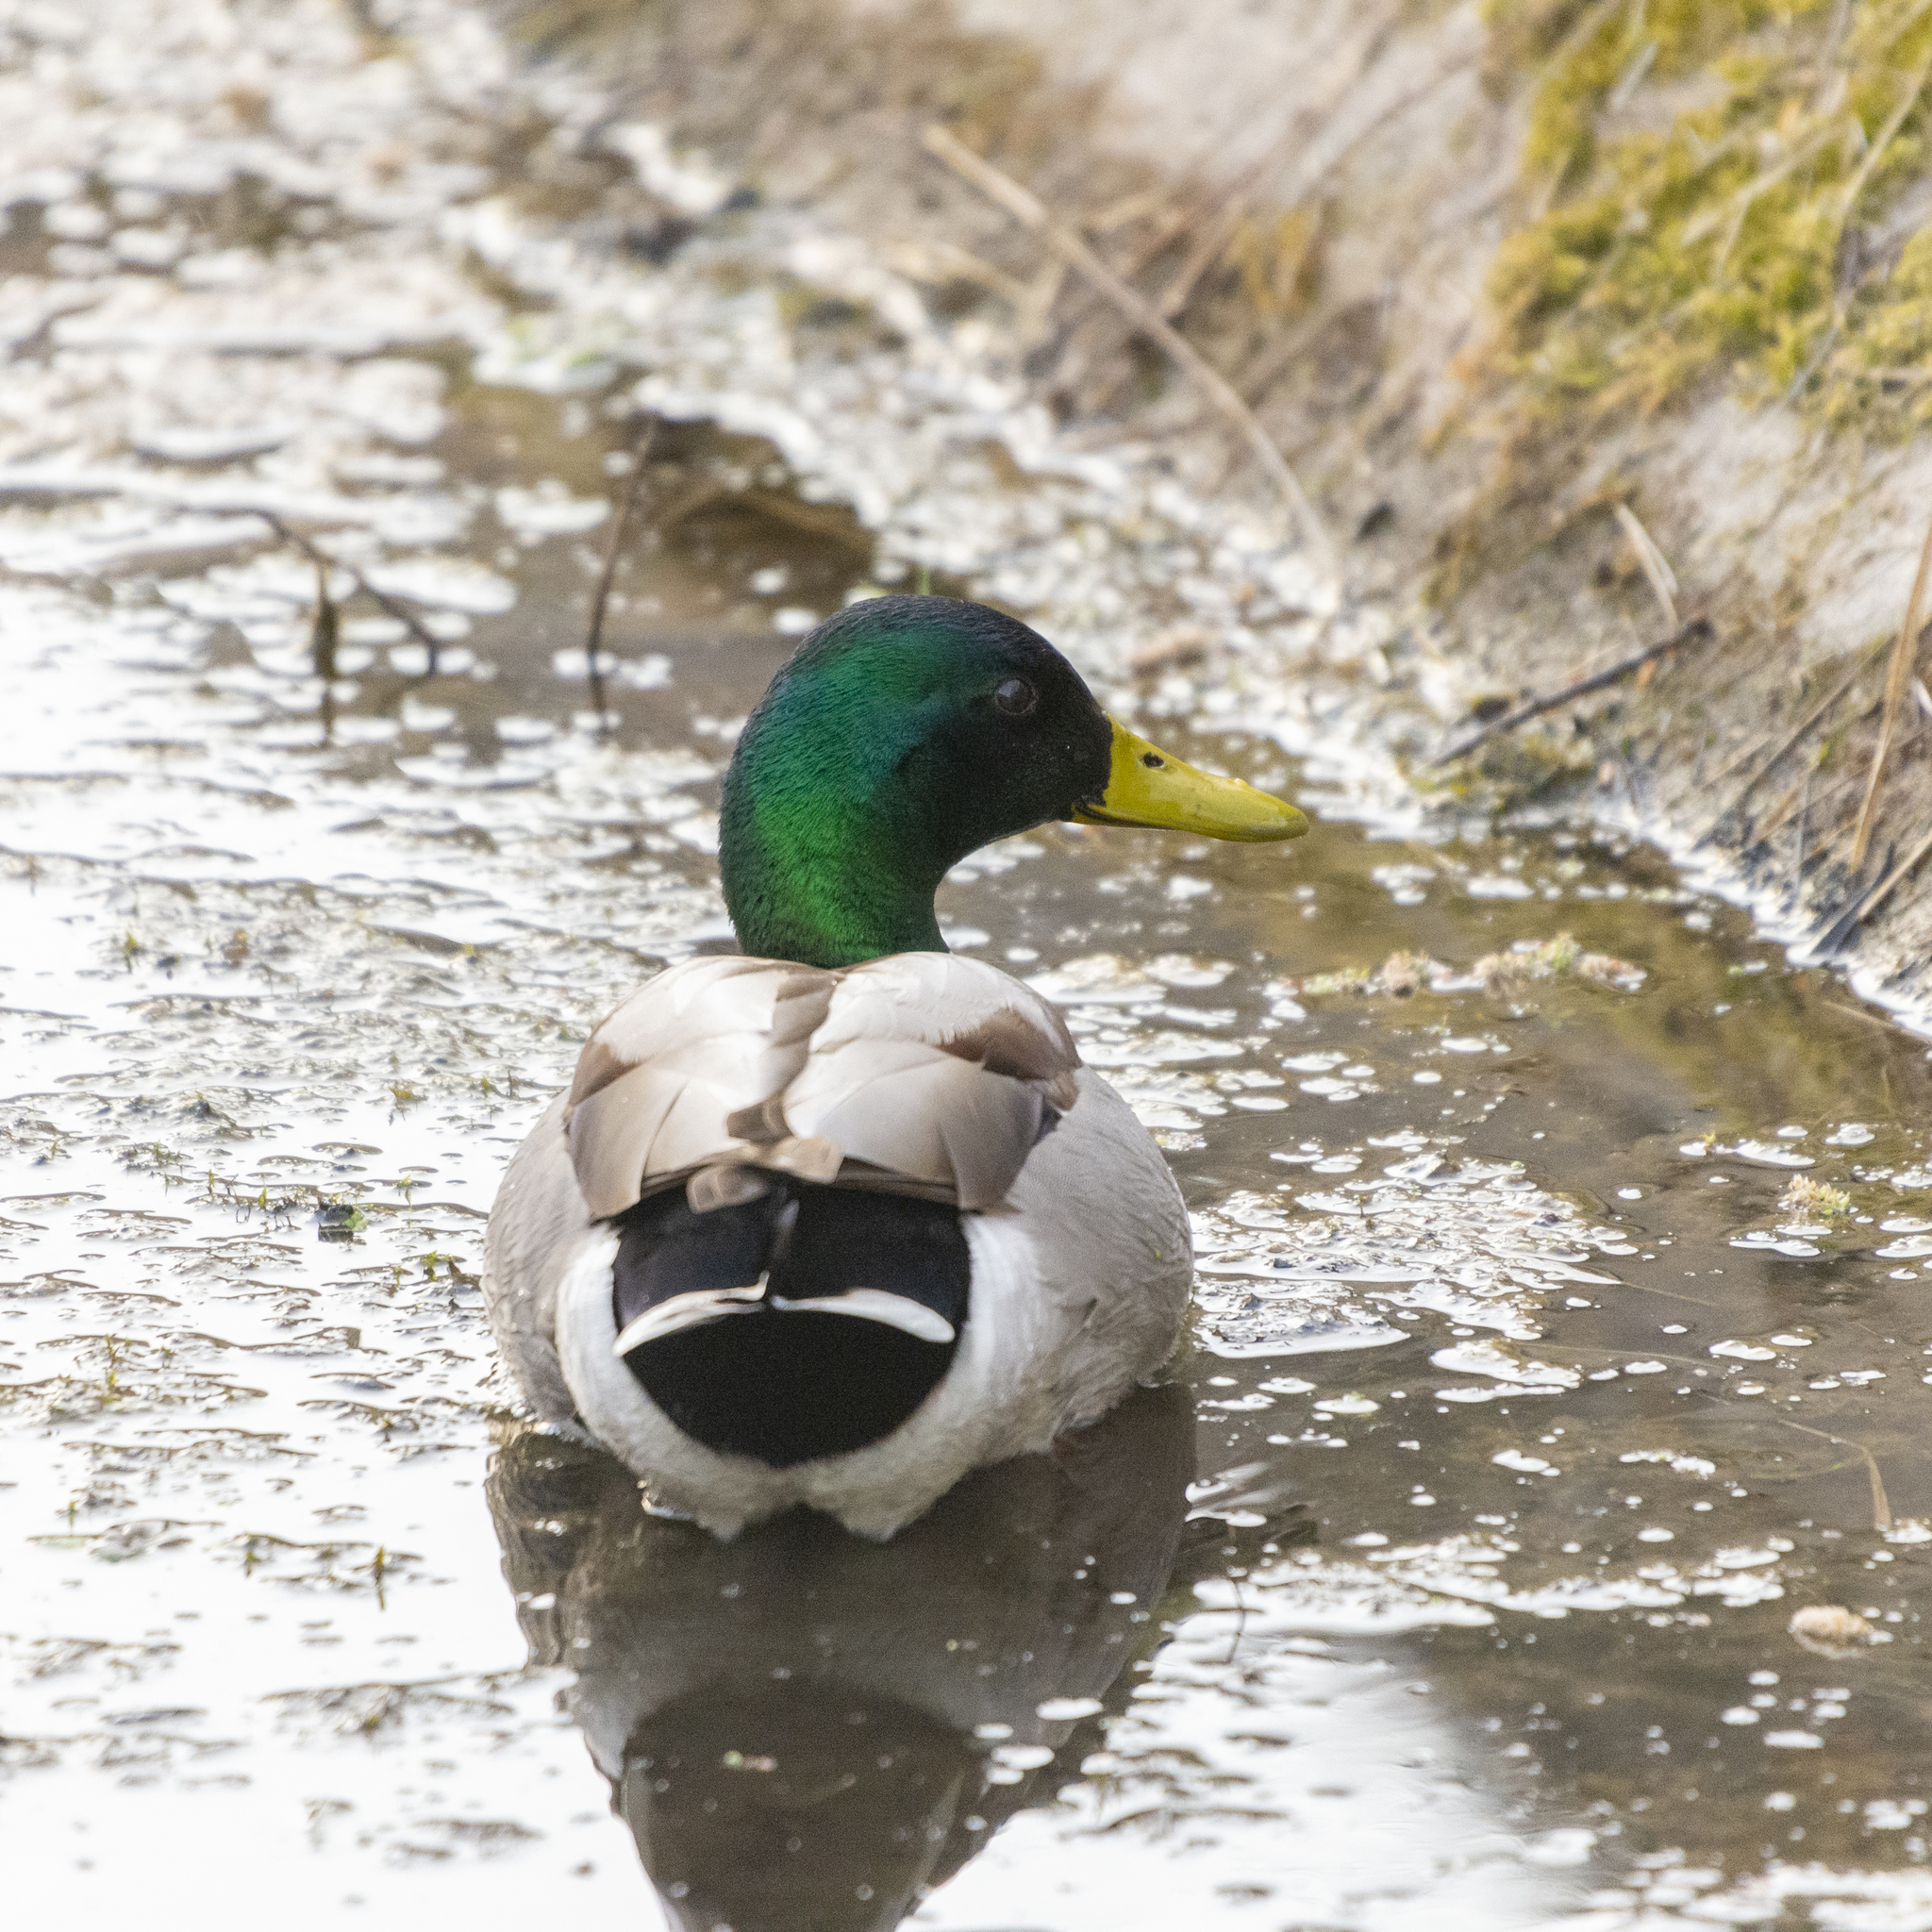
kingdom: Animalia
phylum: Chordata
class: Aves
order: Anseriformes
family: Anatidae
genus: Anas
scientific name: Anas platyrhynchos
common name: Mallard
